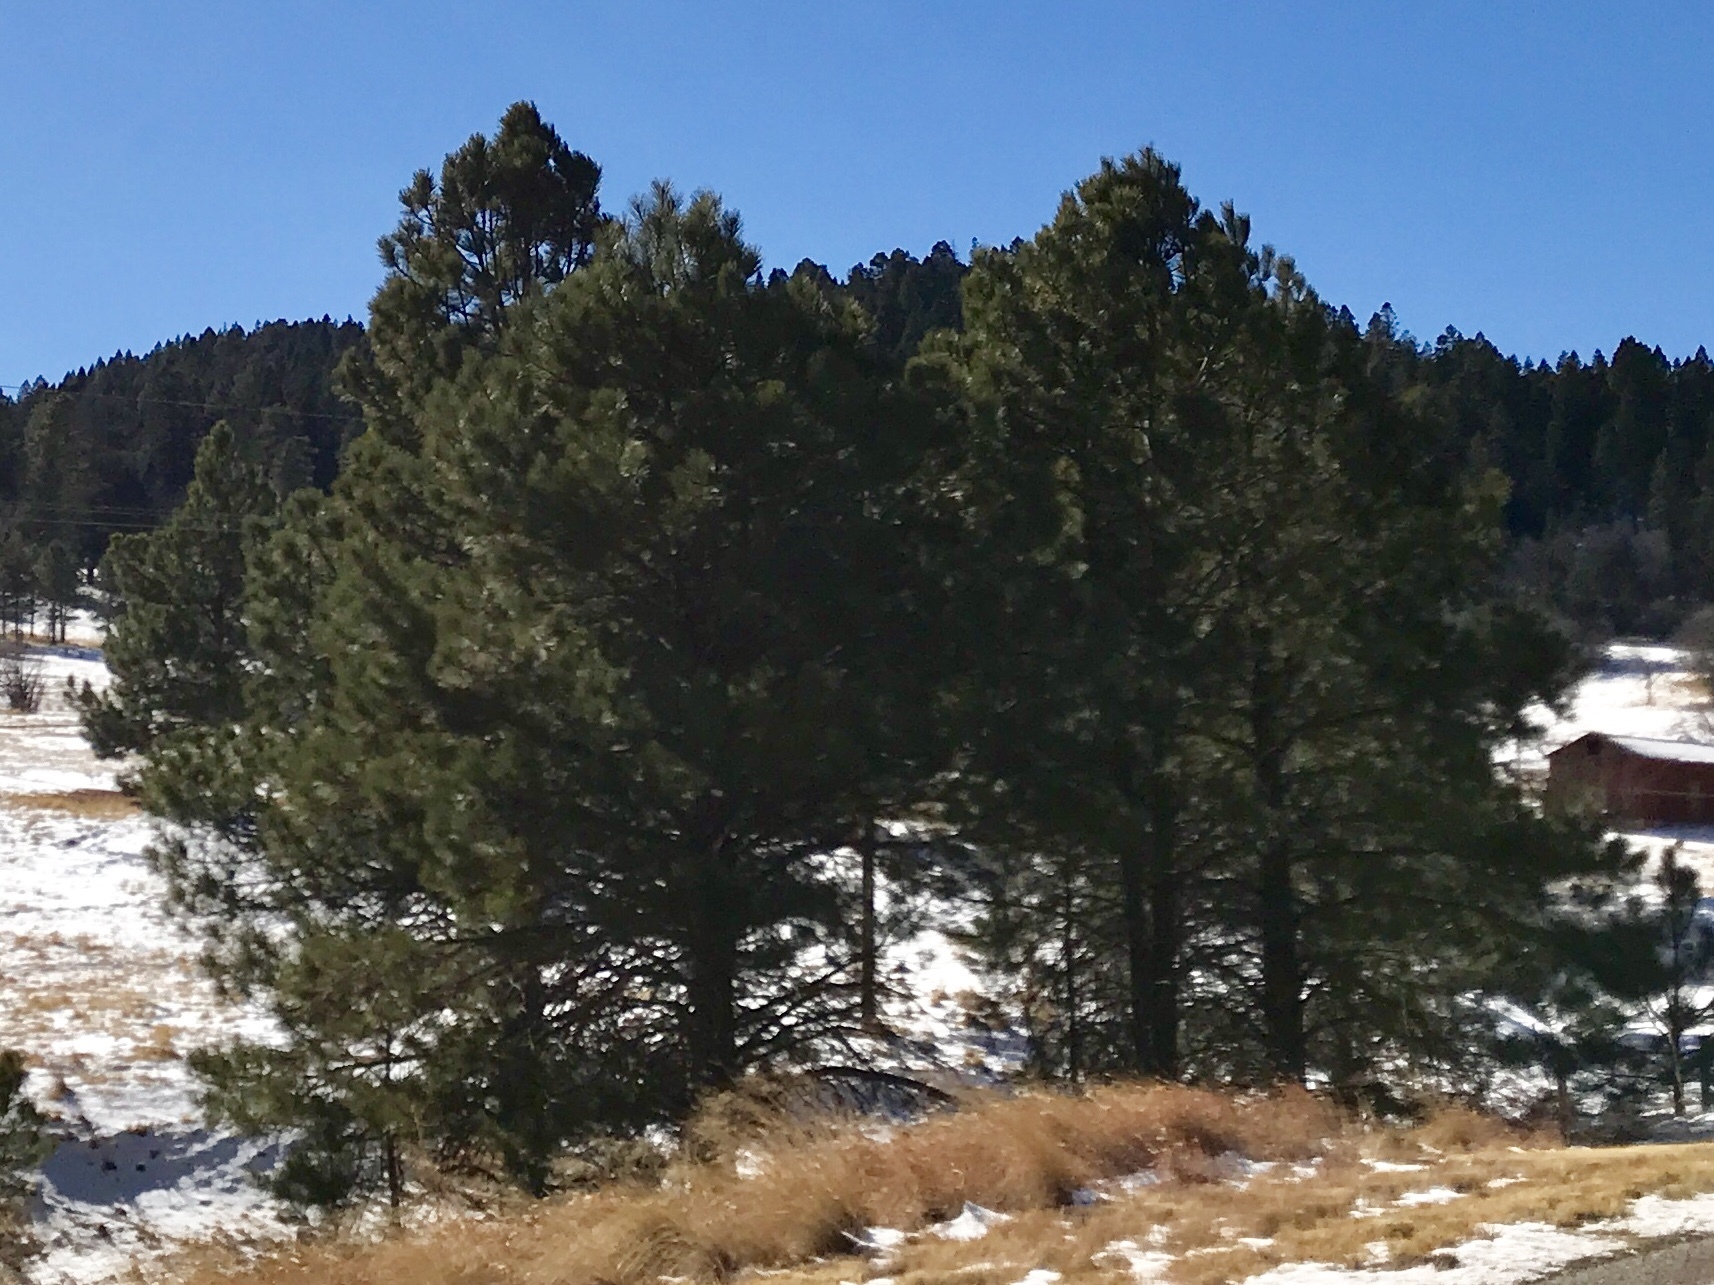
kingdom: Plantae
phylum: Tracheophyta
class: Pinopsida
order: Pinales
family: Pinaceae
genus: Pinus
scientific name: Pinus ponderosa
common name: Western yellow-pine
